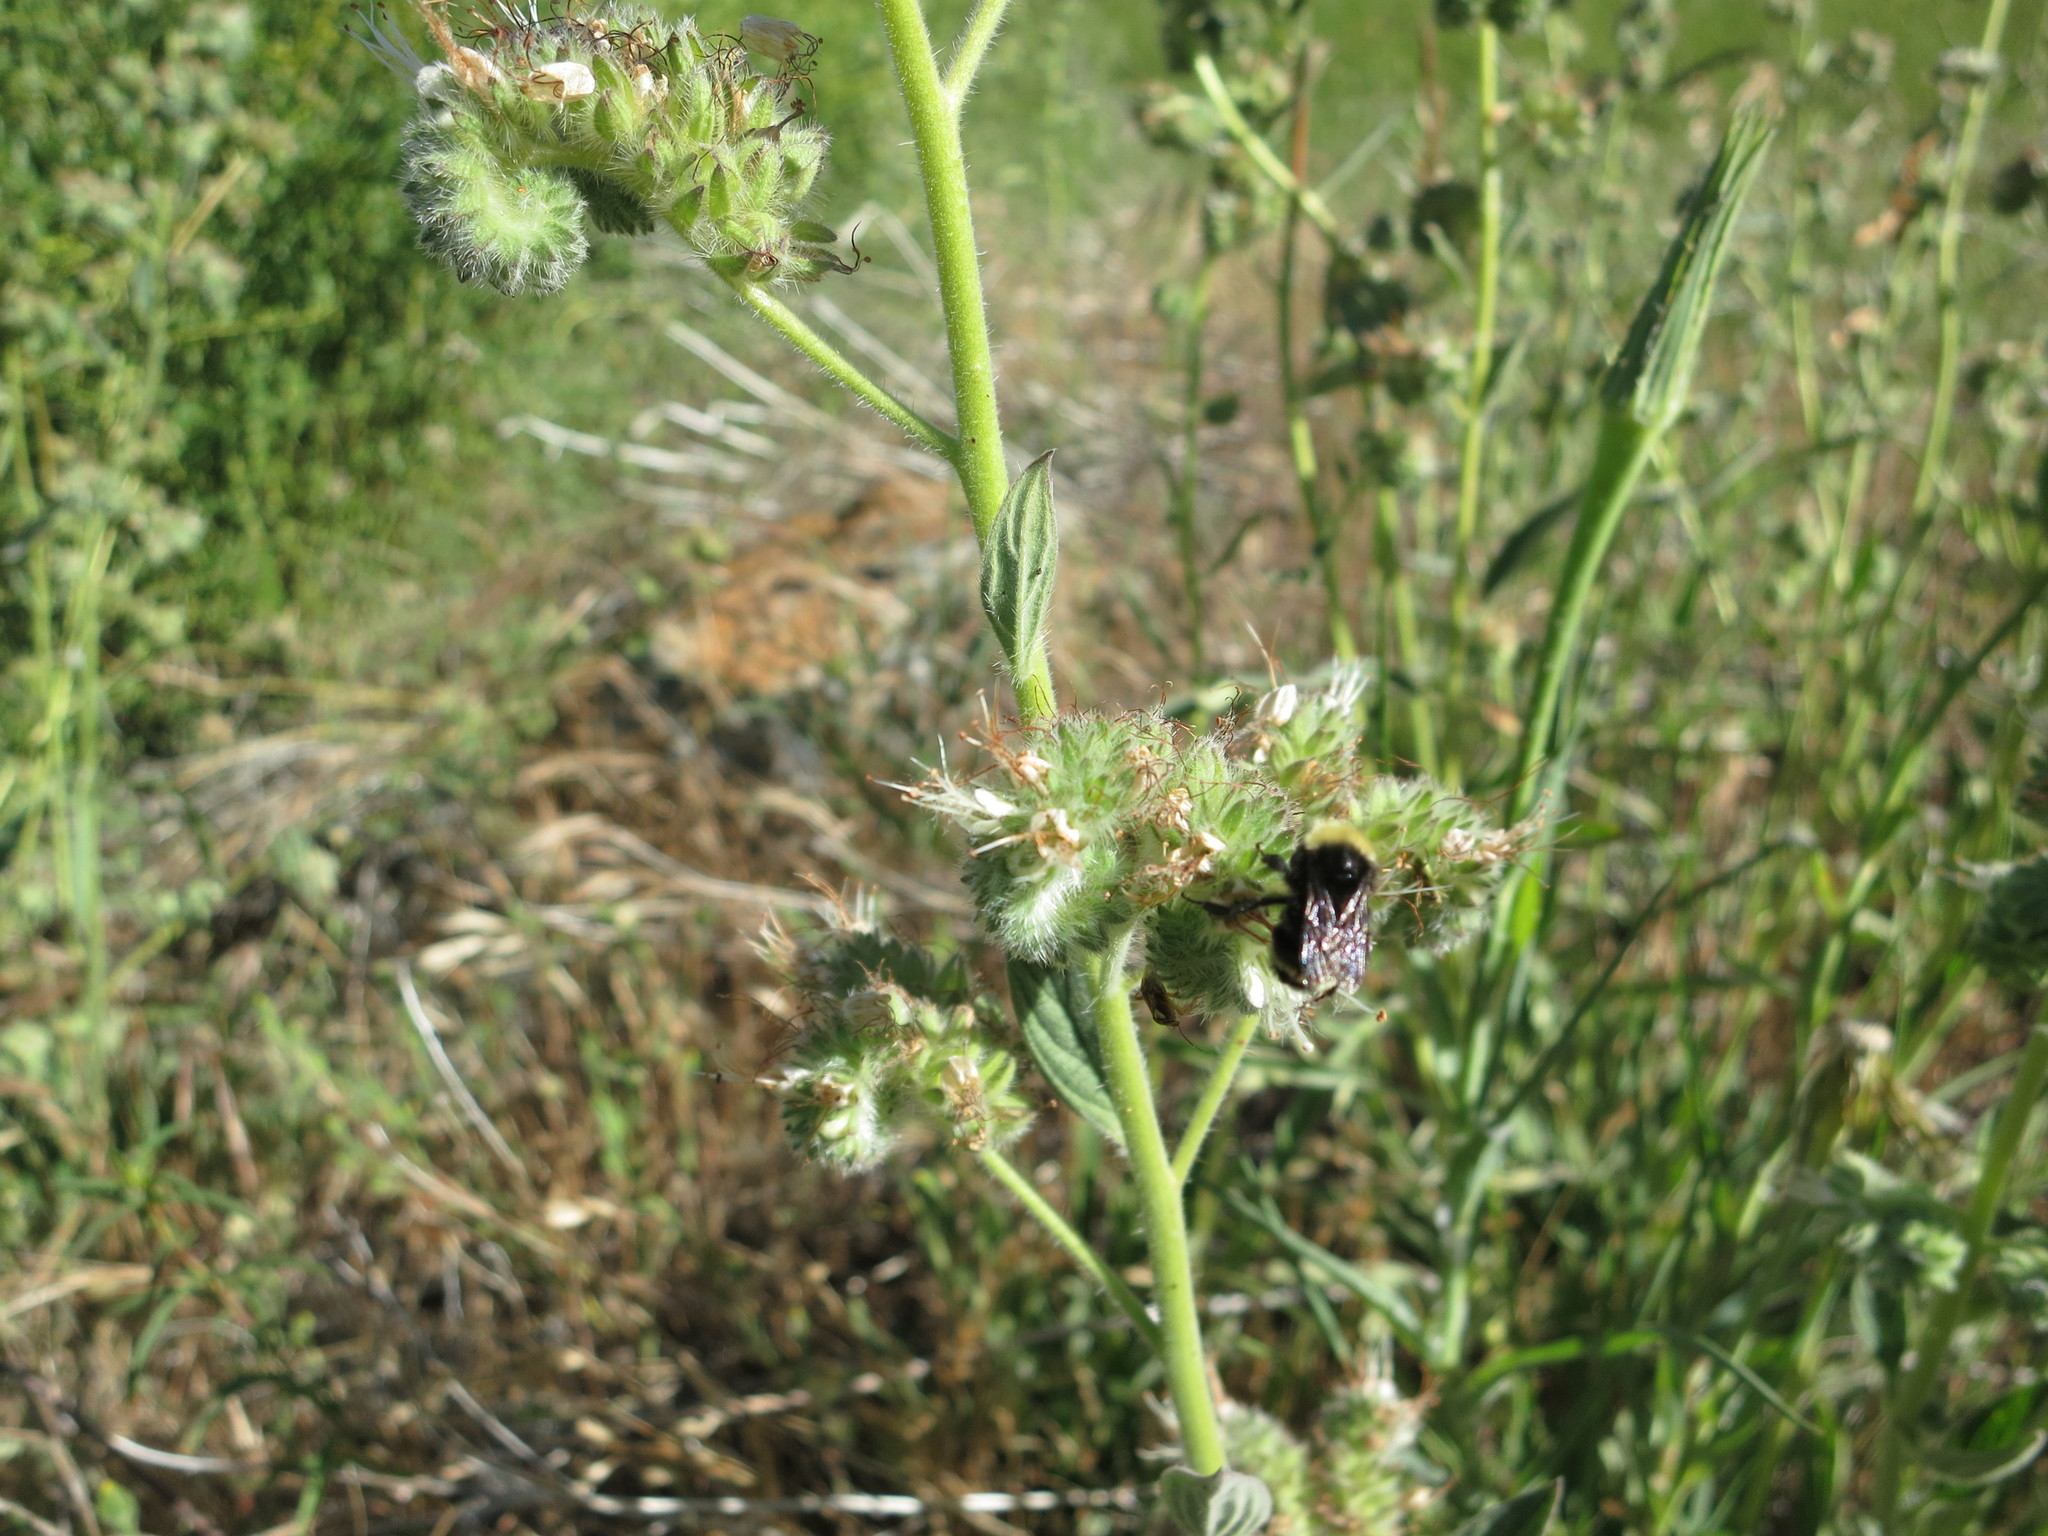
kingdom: Animalia
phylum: Arthropoda
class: Insecta
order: Hymenoptera
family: Apidae
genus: Bombus
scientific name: Bombus vosnesenskii
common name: Vosnesensky bumble bee
